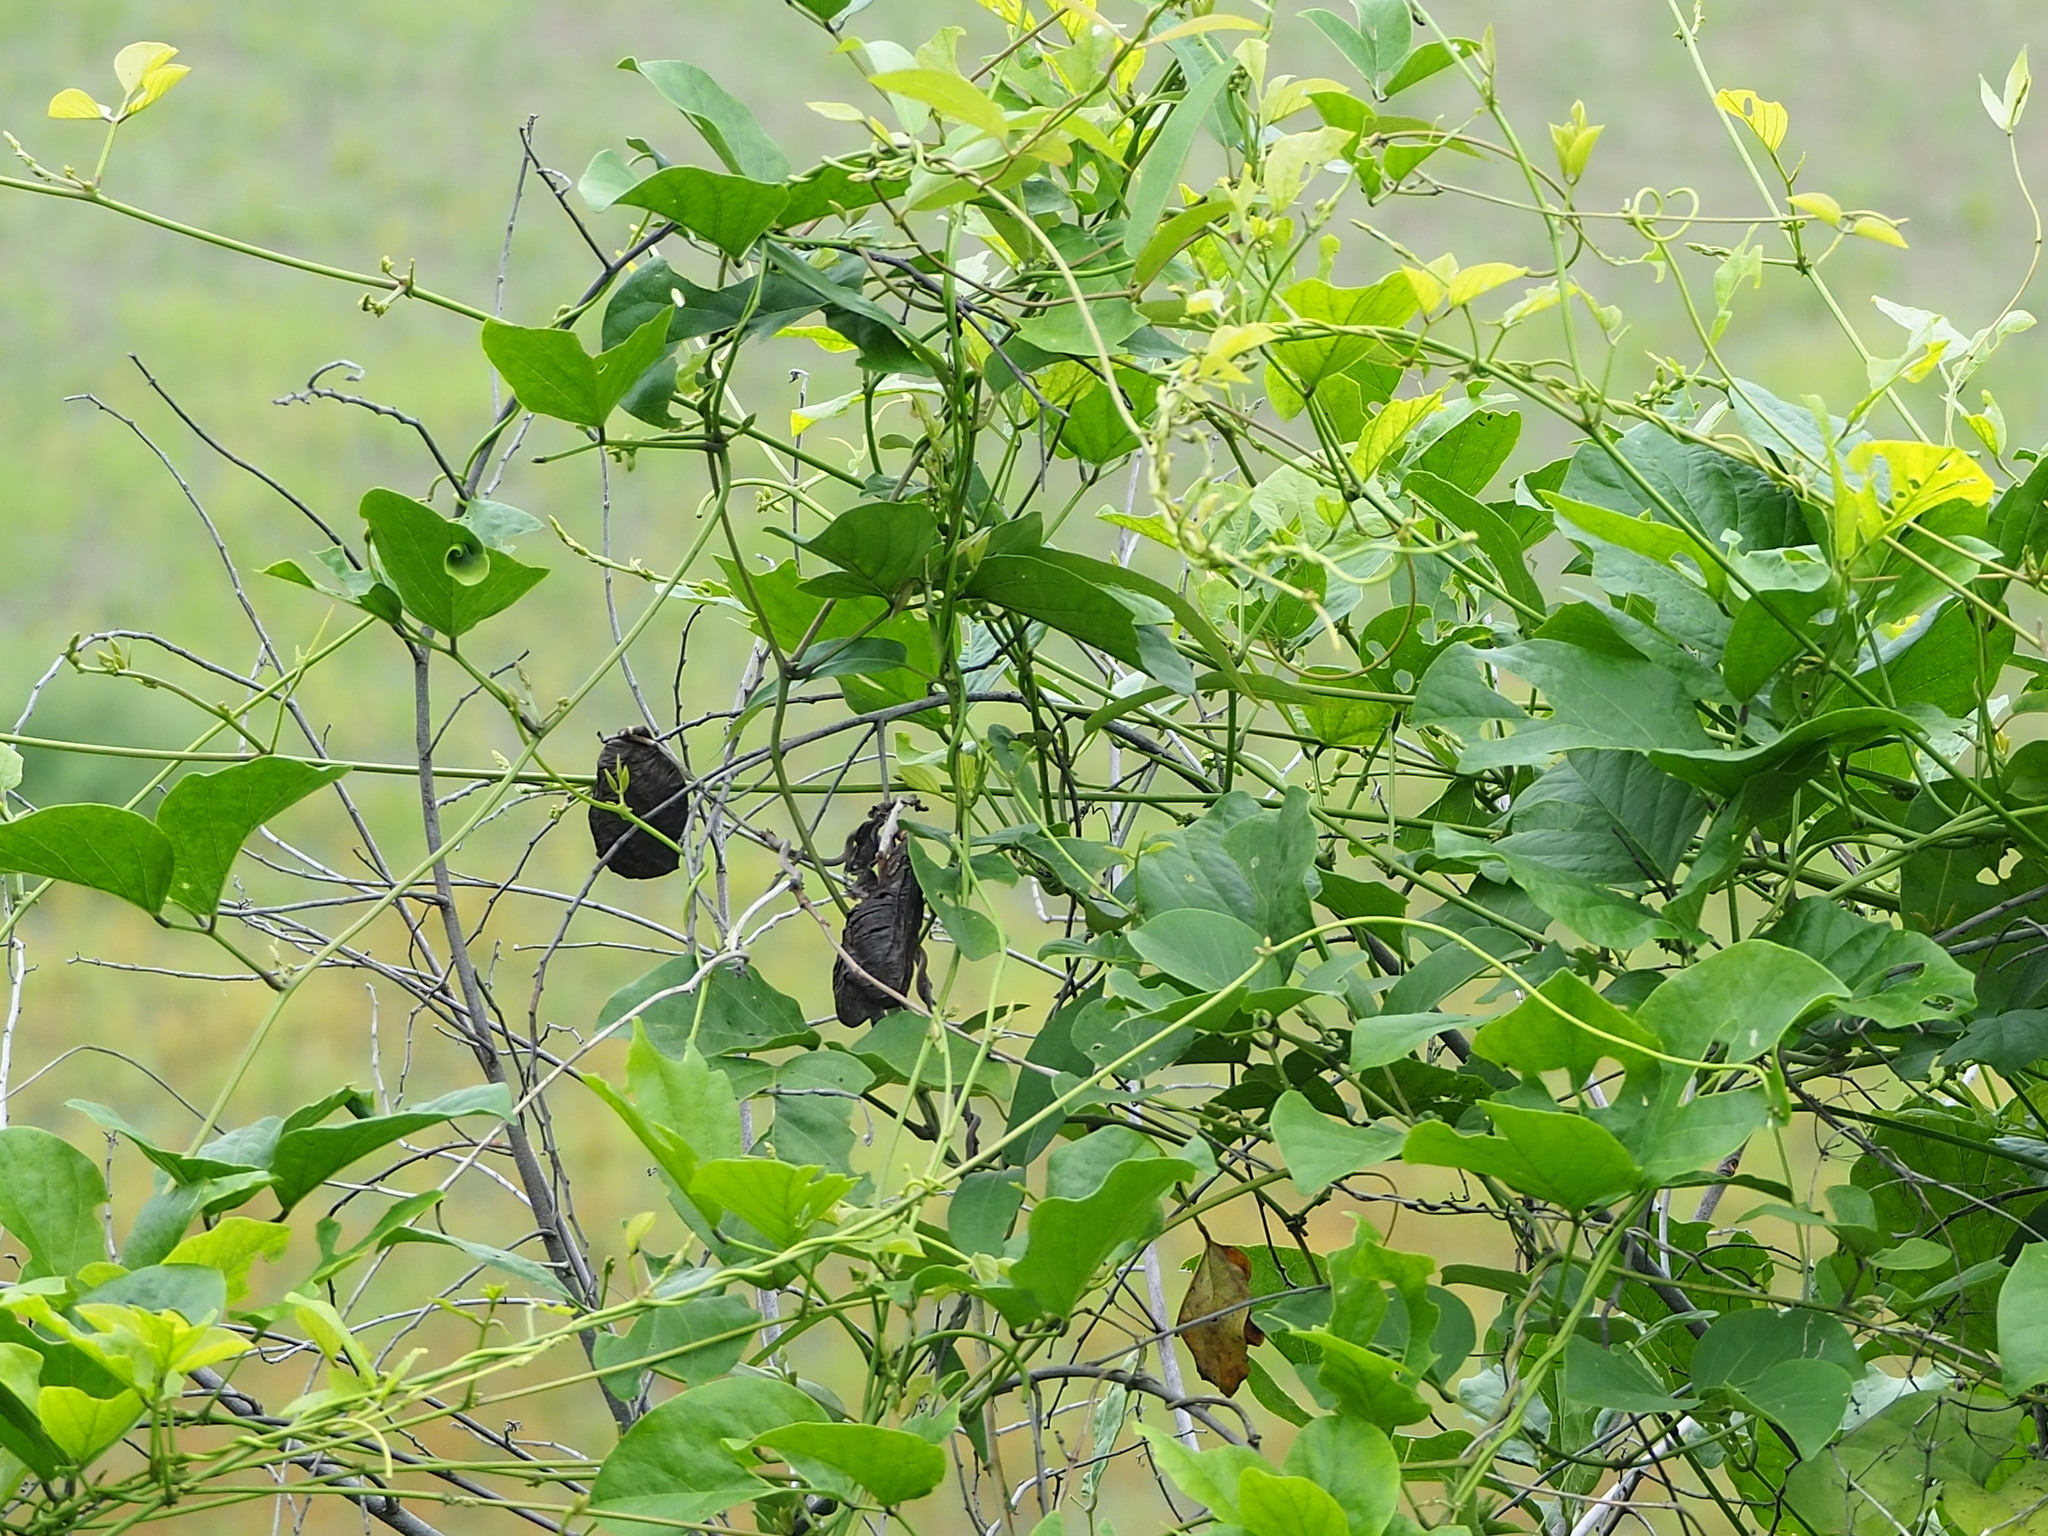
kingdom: Plantae
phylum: Tracheophyta
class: Magnoliopsida
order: Fabales
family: Fabaceae
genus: Canavalia
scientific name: Canavalia lineata
